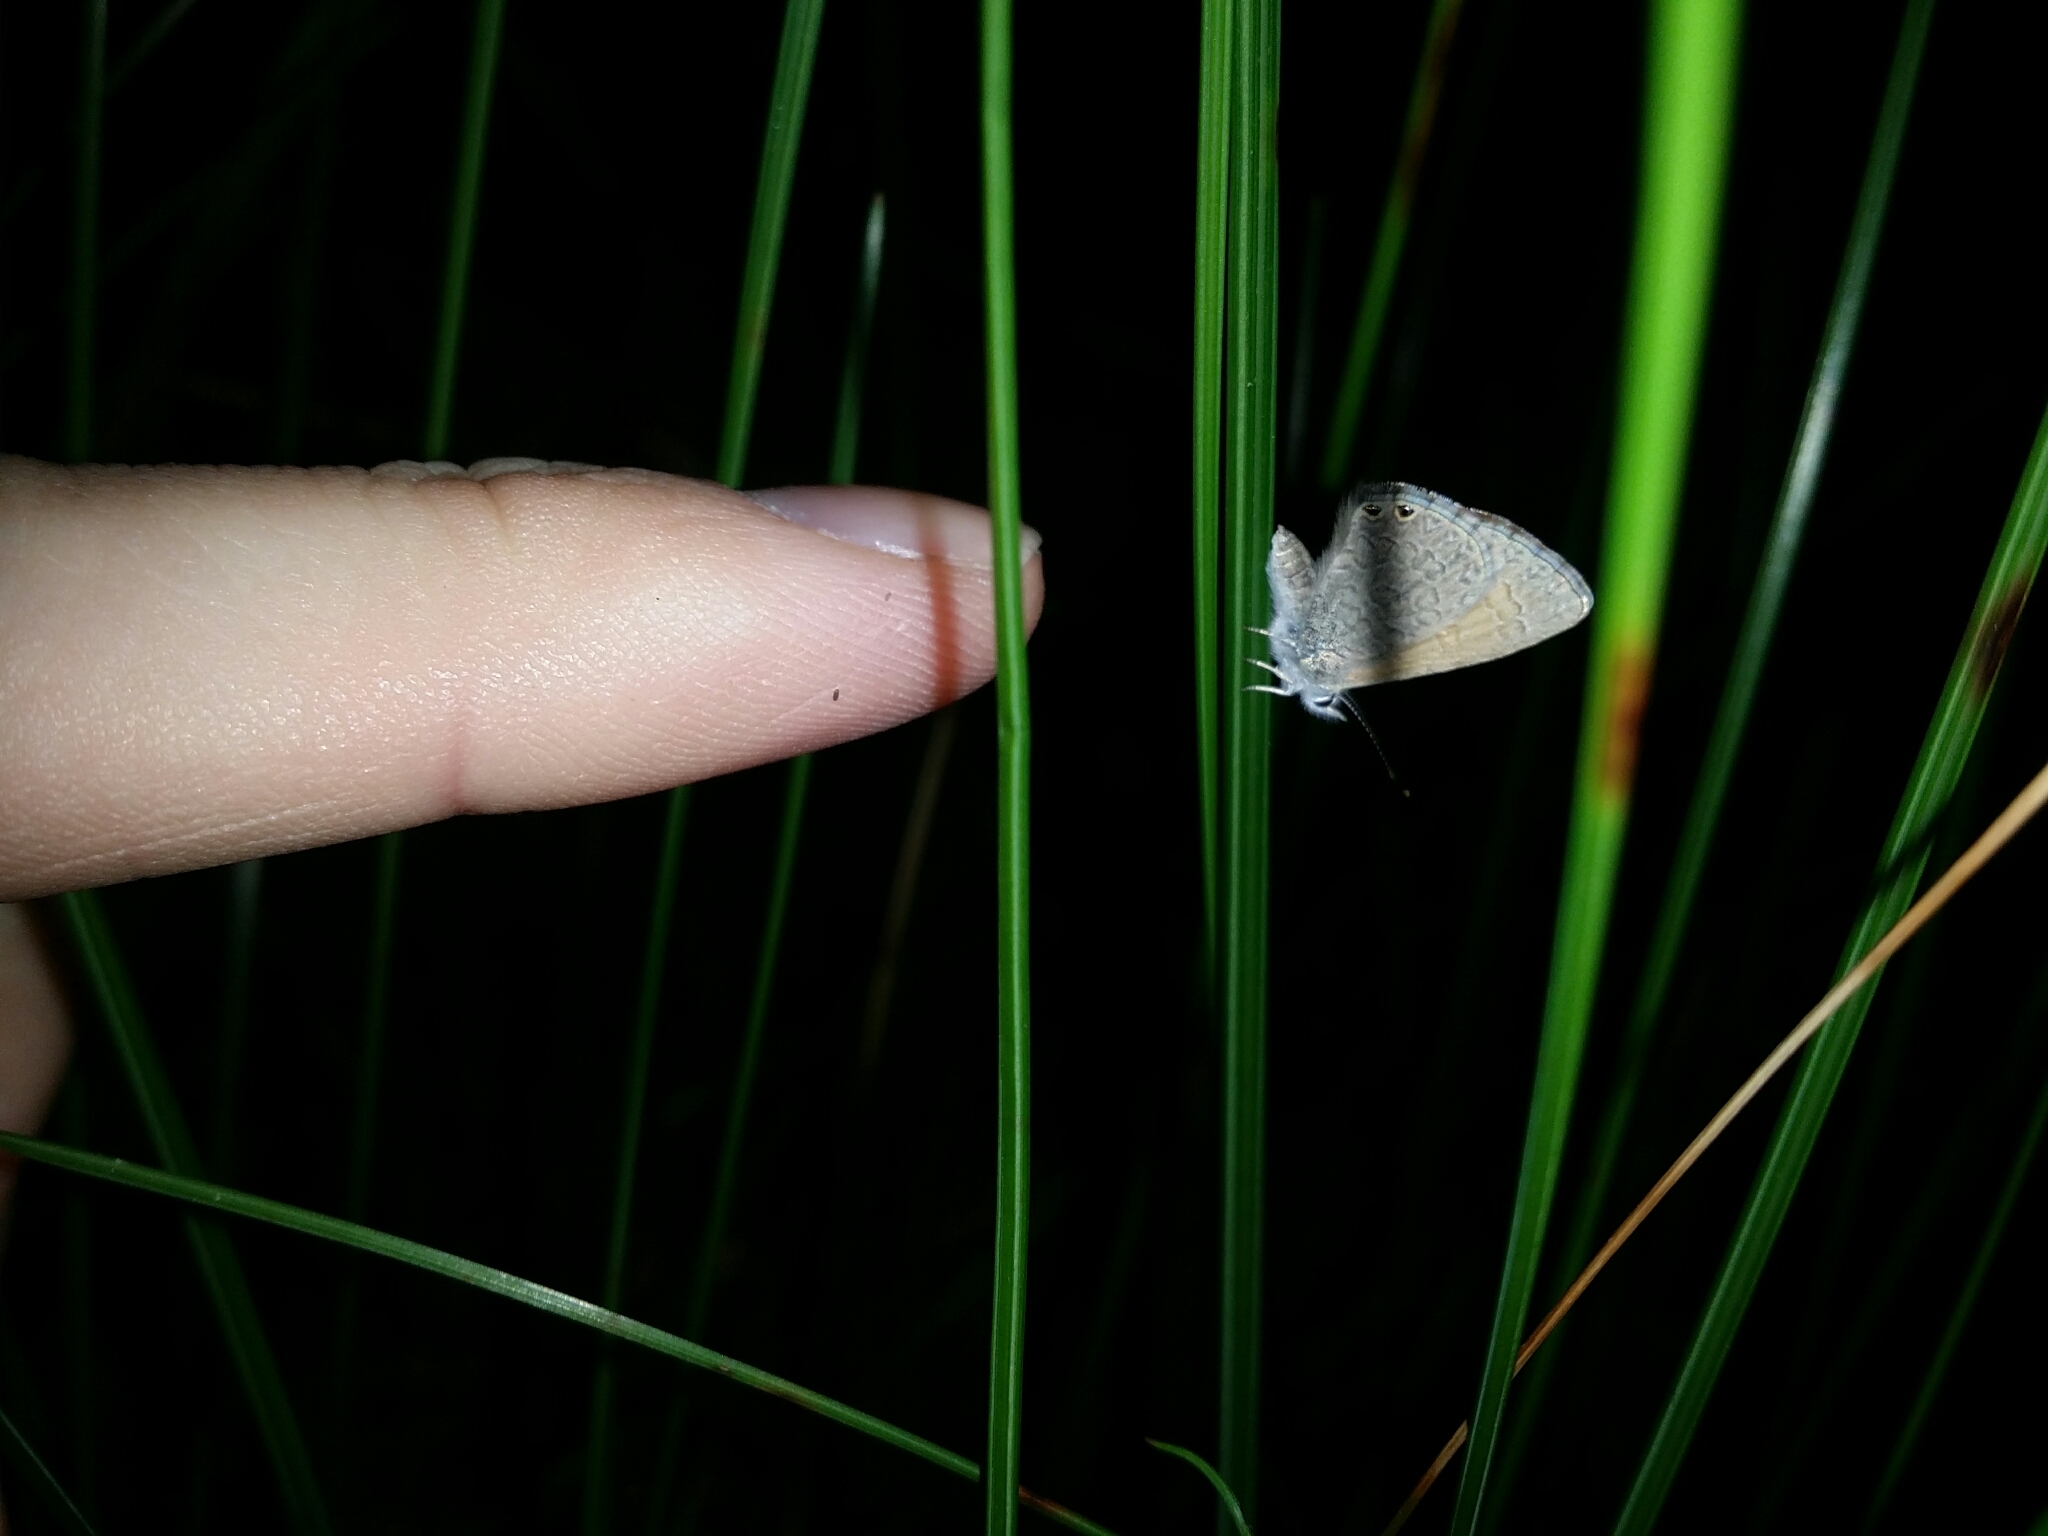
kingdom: Animalia
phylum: Arthropoda
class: Insecta
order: Lepidoptera
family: Lycaenidae
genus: Nacaduba
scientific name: Nacaduba biocellata
